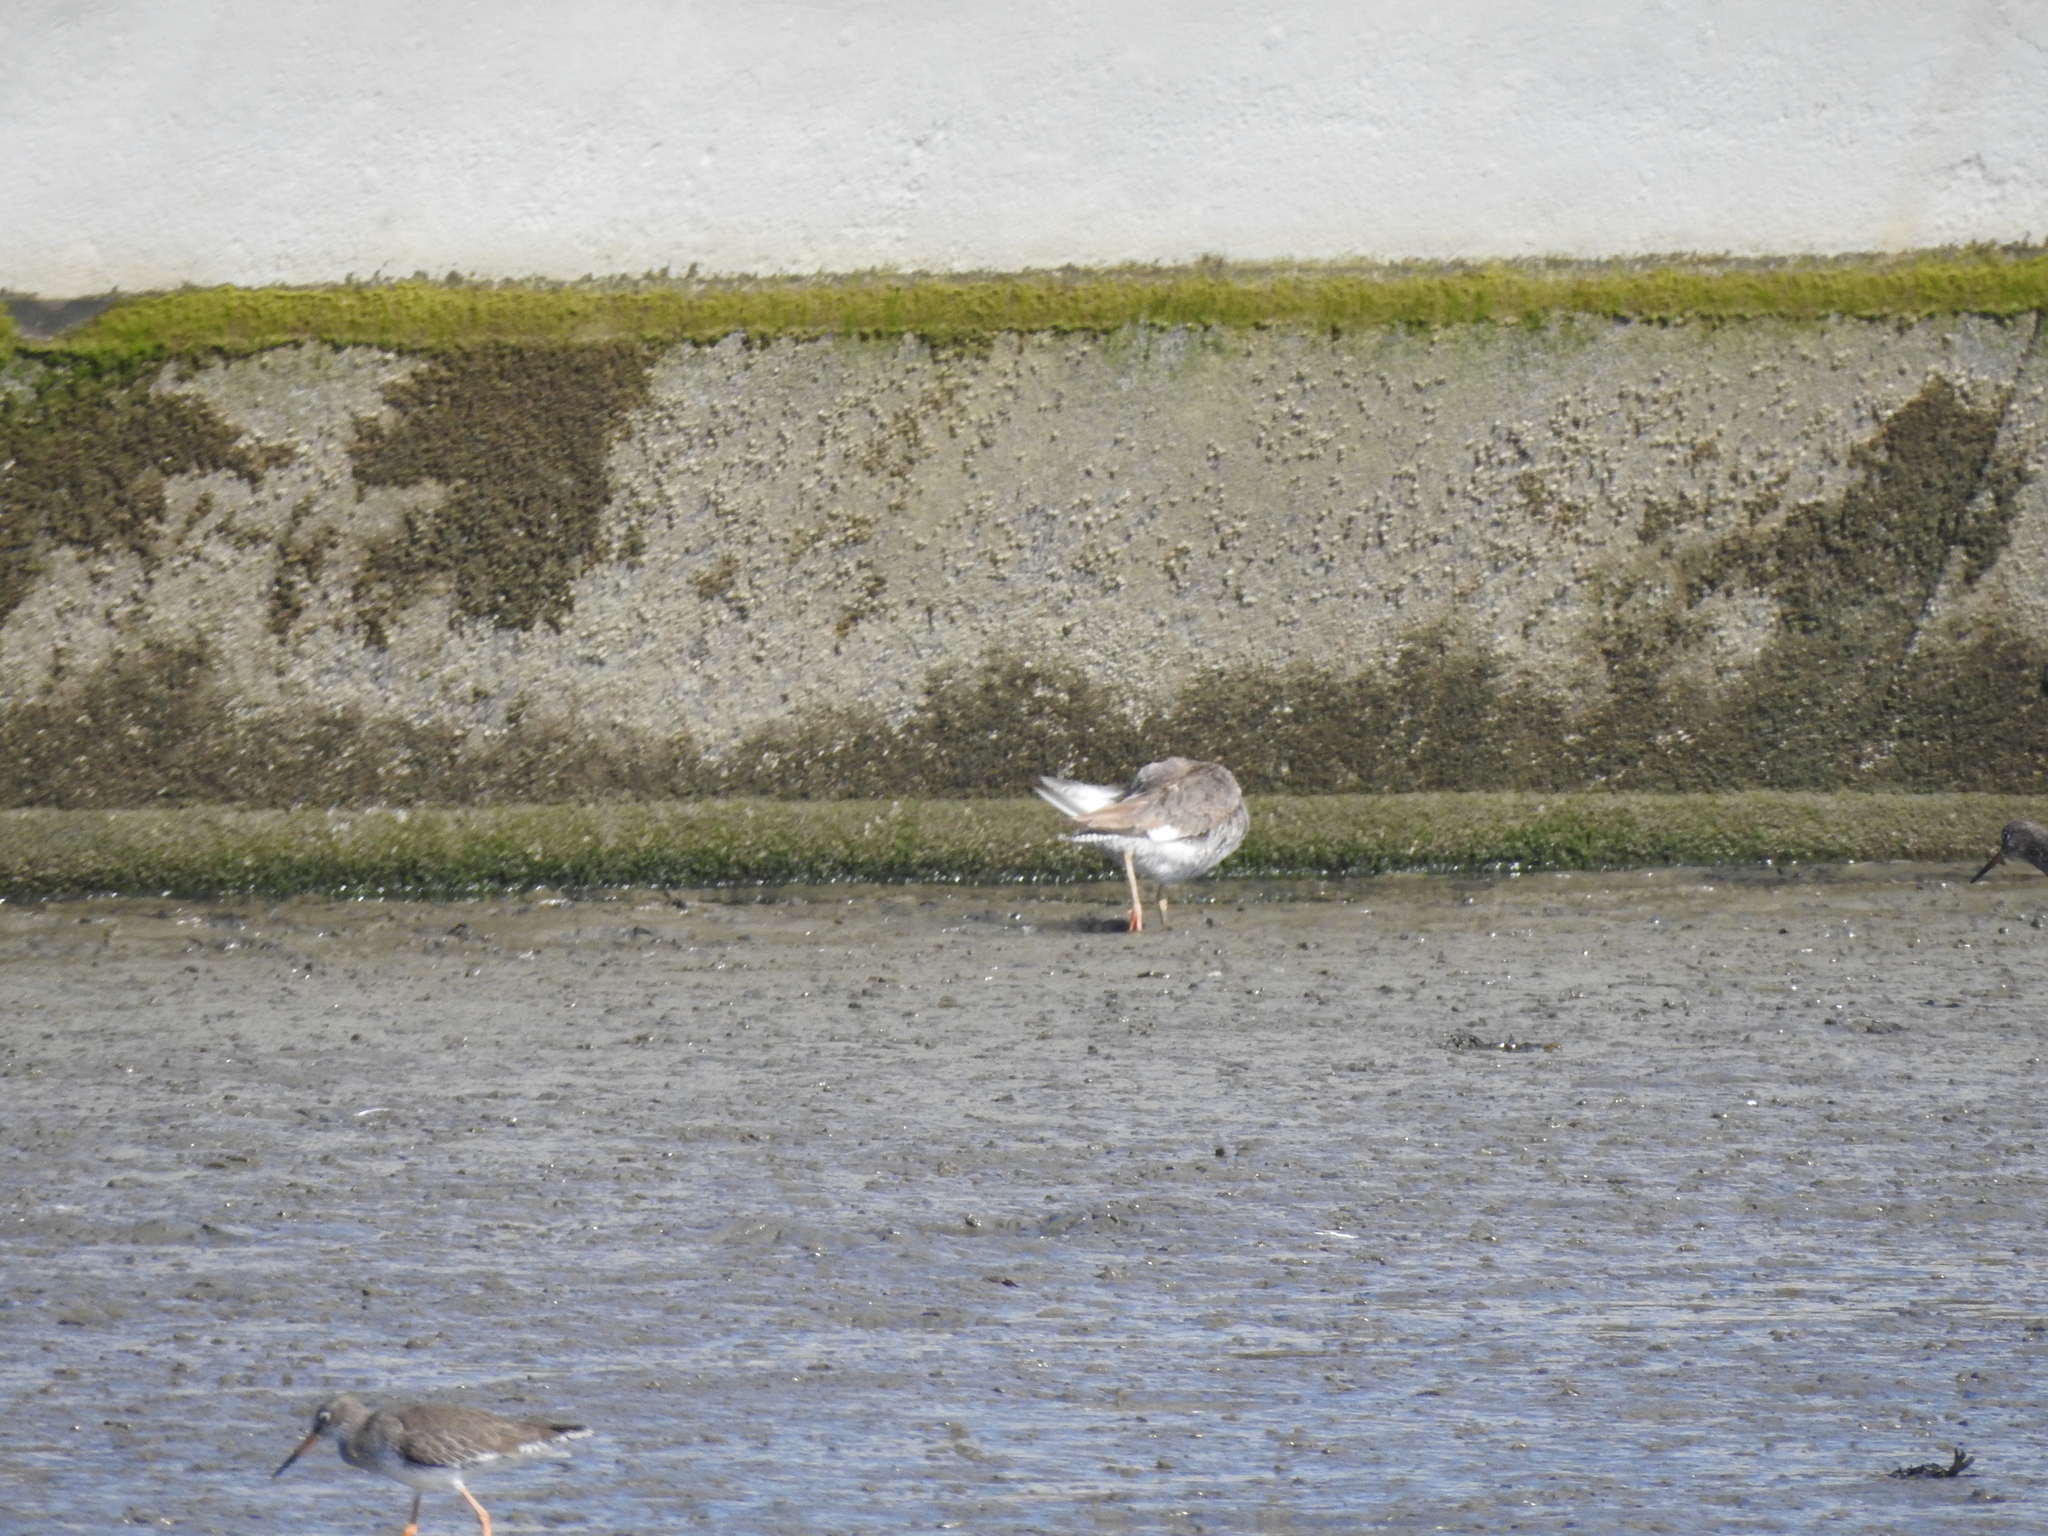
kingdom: Animalia
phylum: Chordata
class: Aves
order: Charadriiformes
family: Scolopacidae
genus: Tringa
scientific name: Tringa totanus
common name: Common redshank
